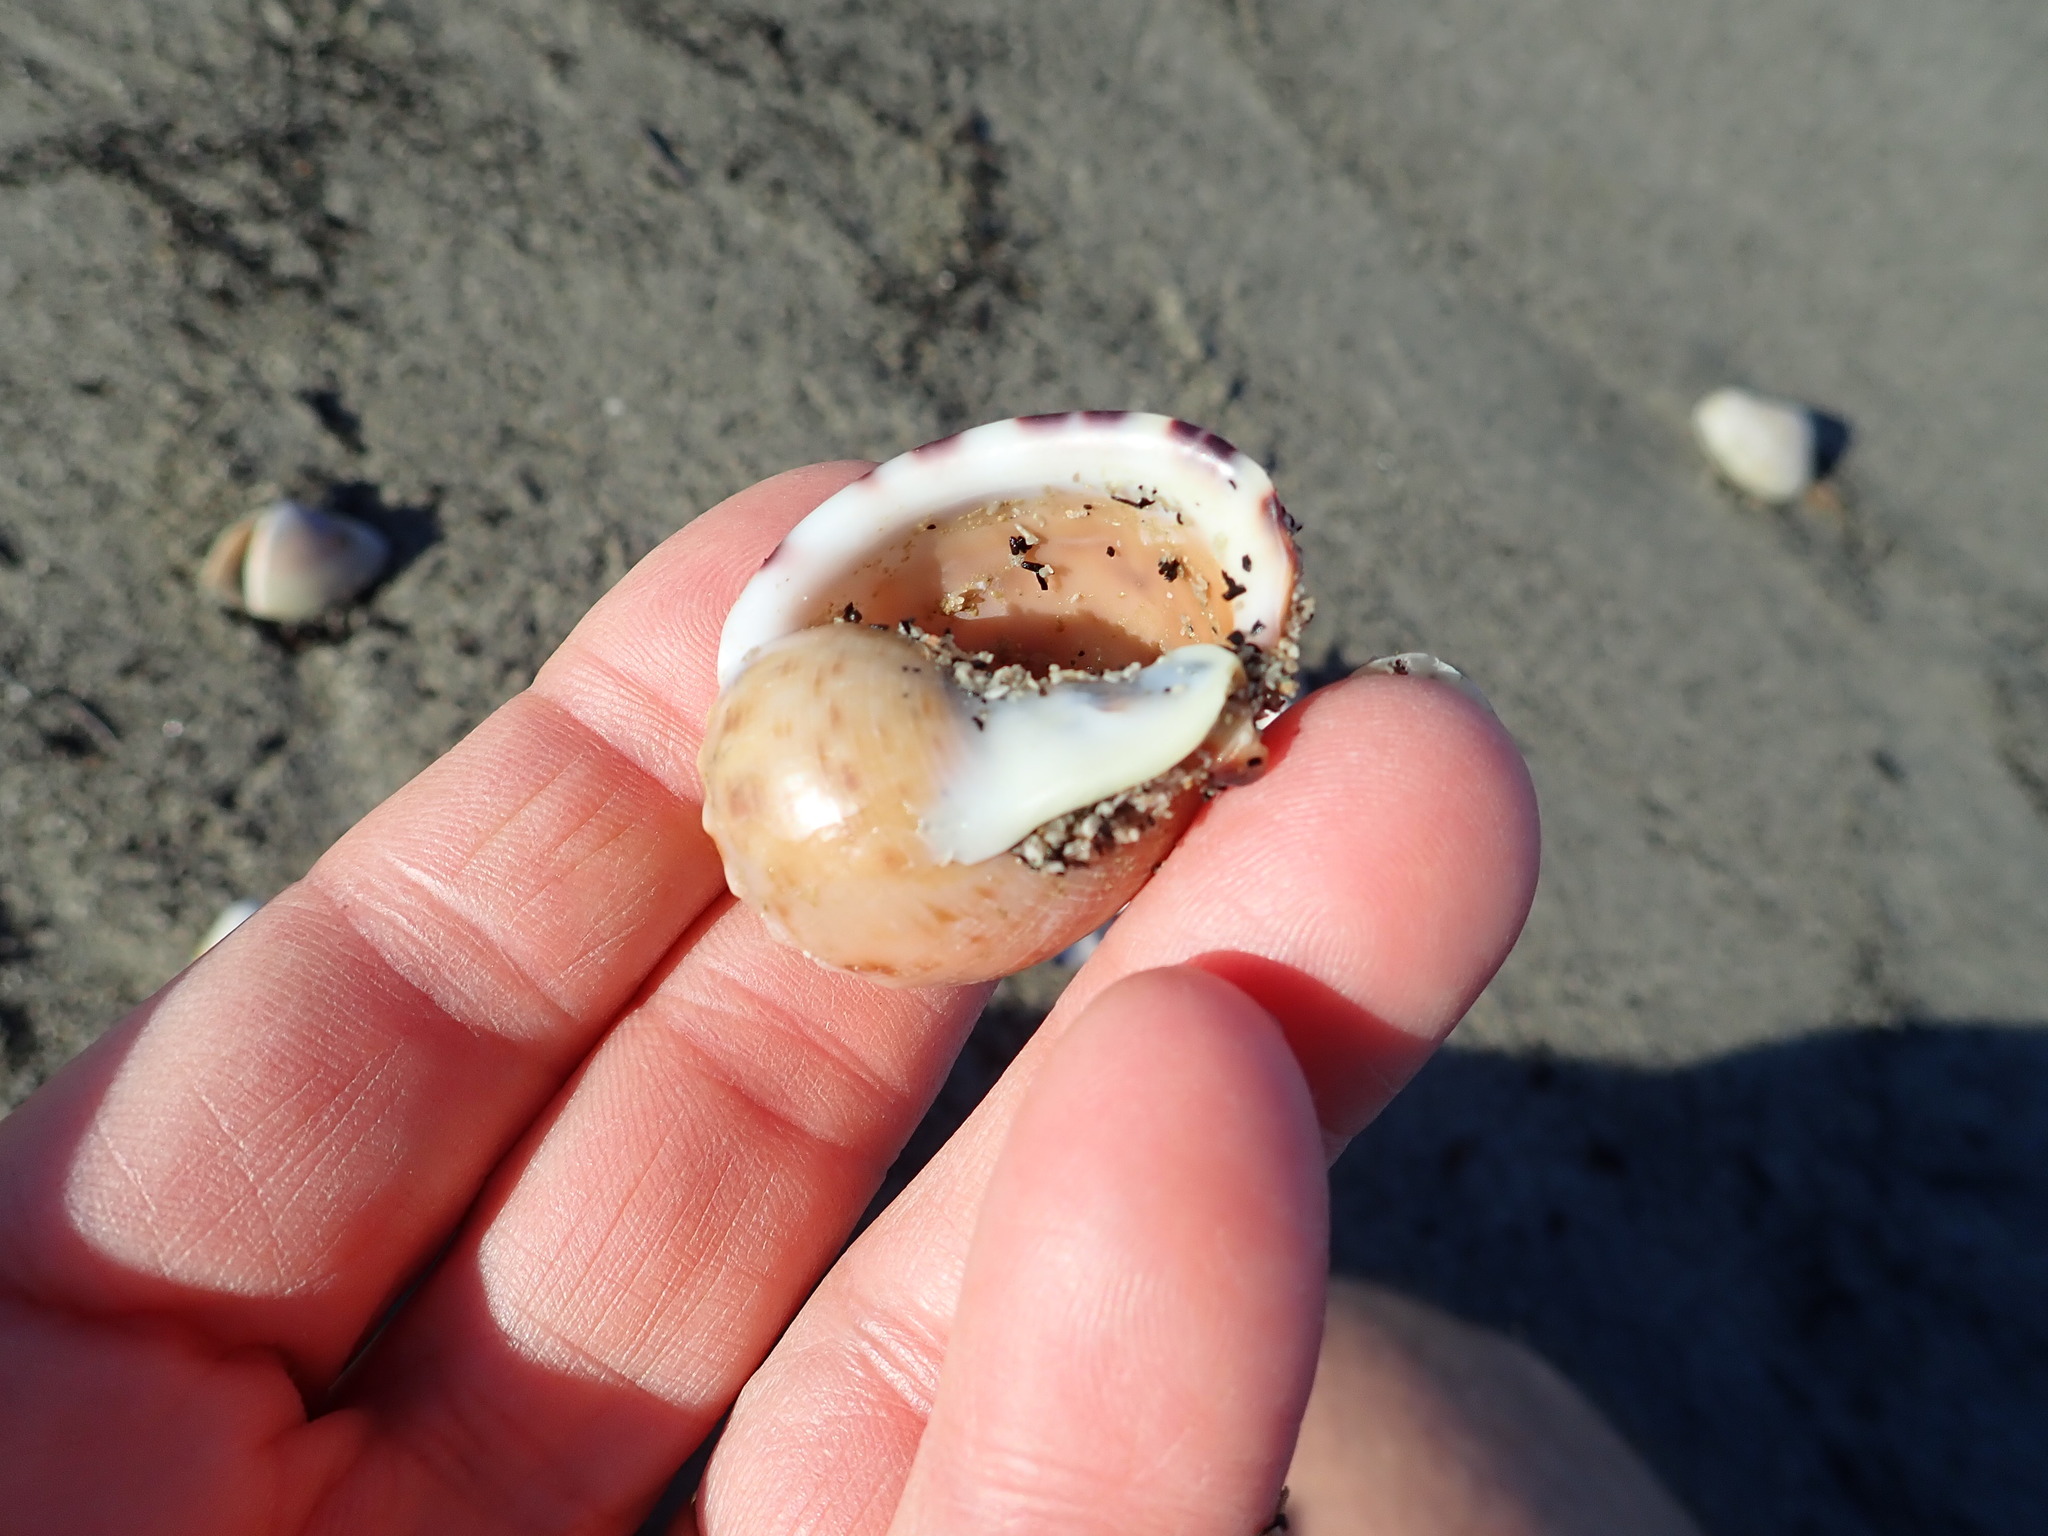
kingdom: Animalia
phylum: Mollusca
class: Gastropoda
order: Littorinimorpha
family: Cassidae
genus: Semicassis
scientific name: Semicassis pyrum
